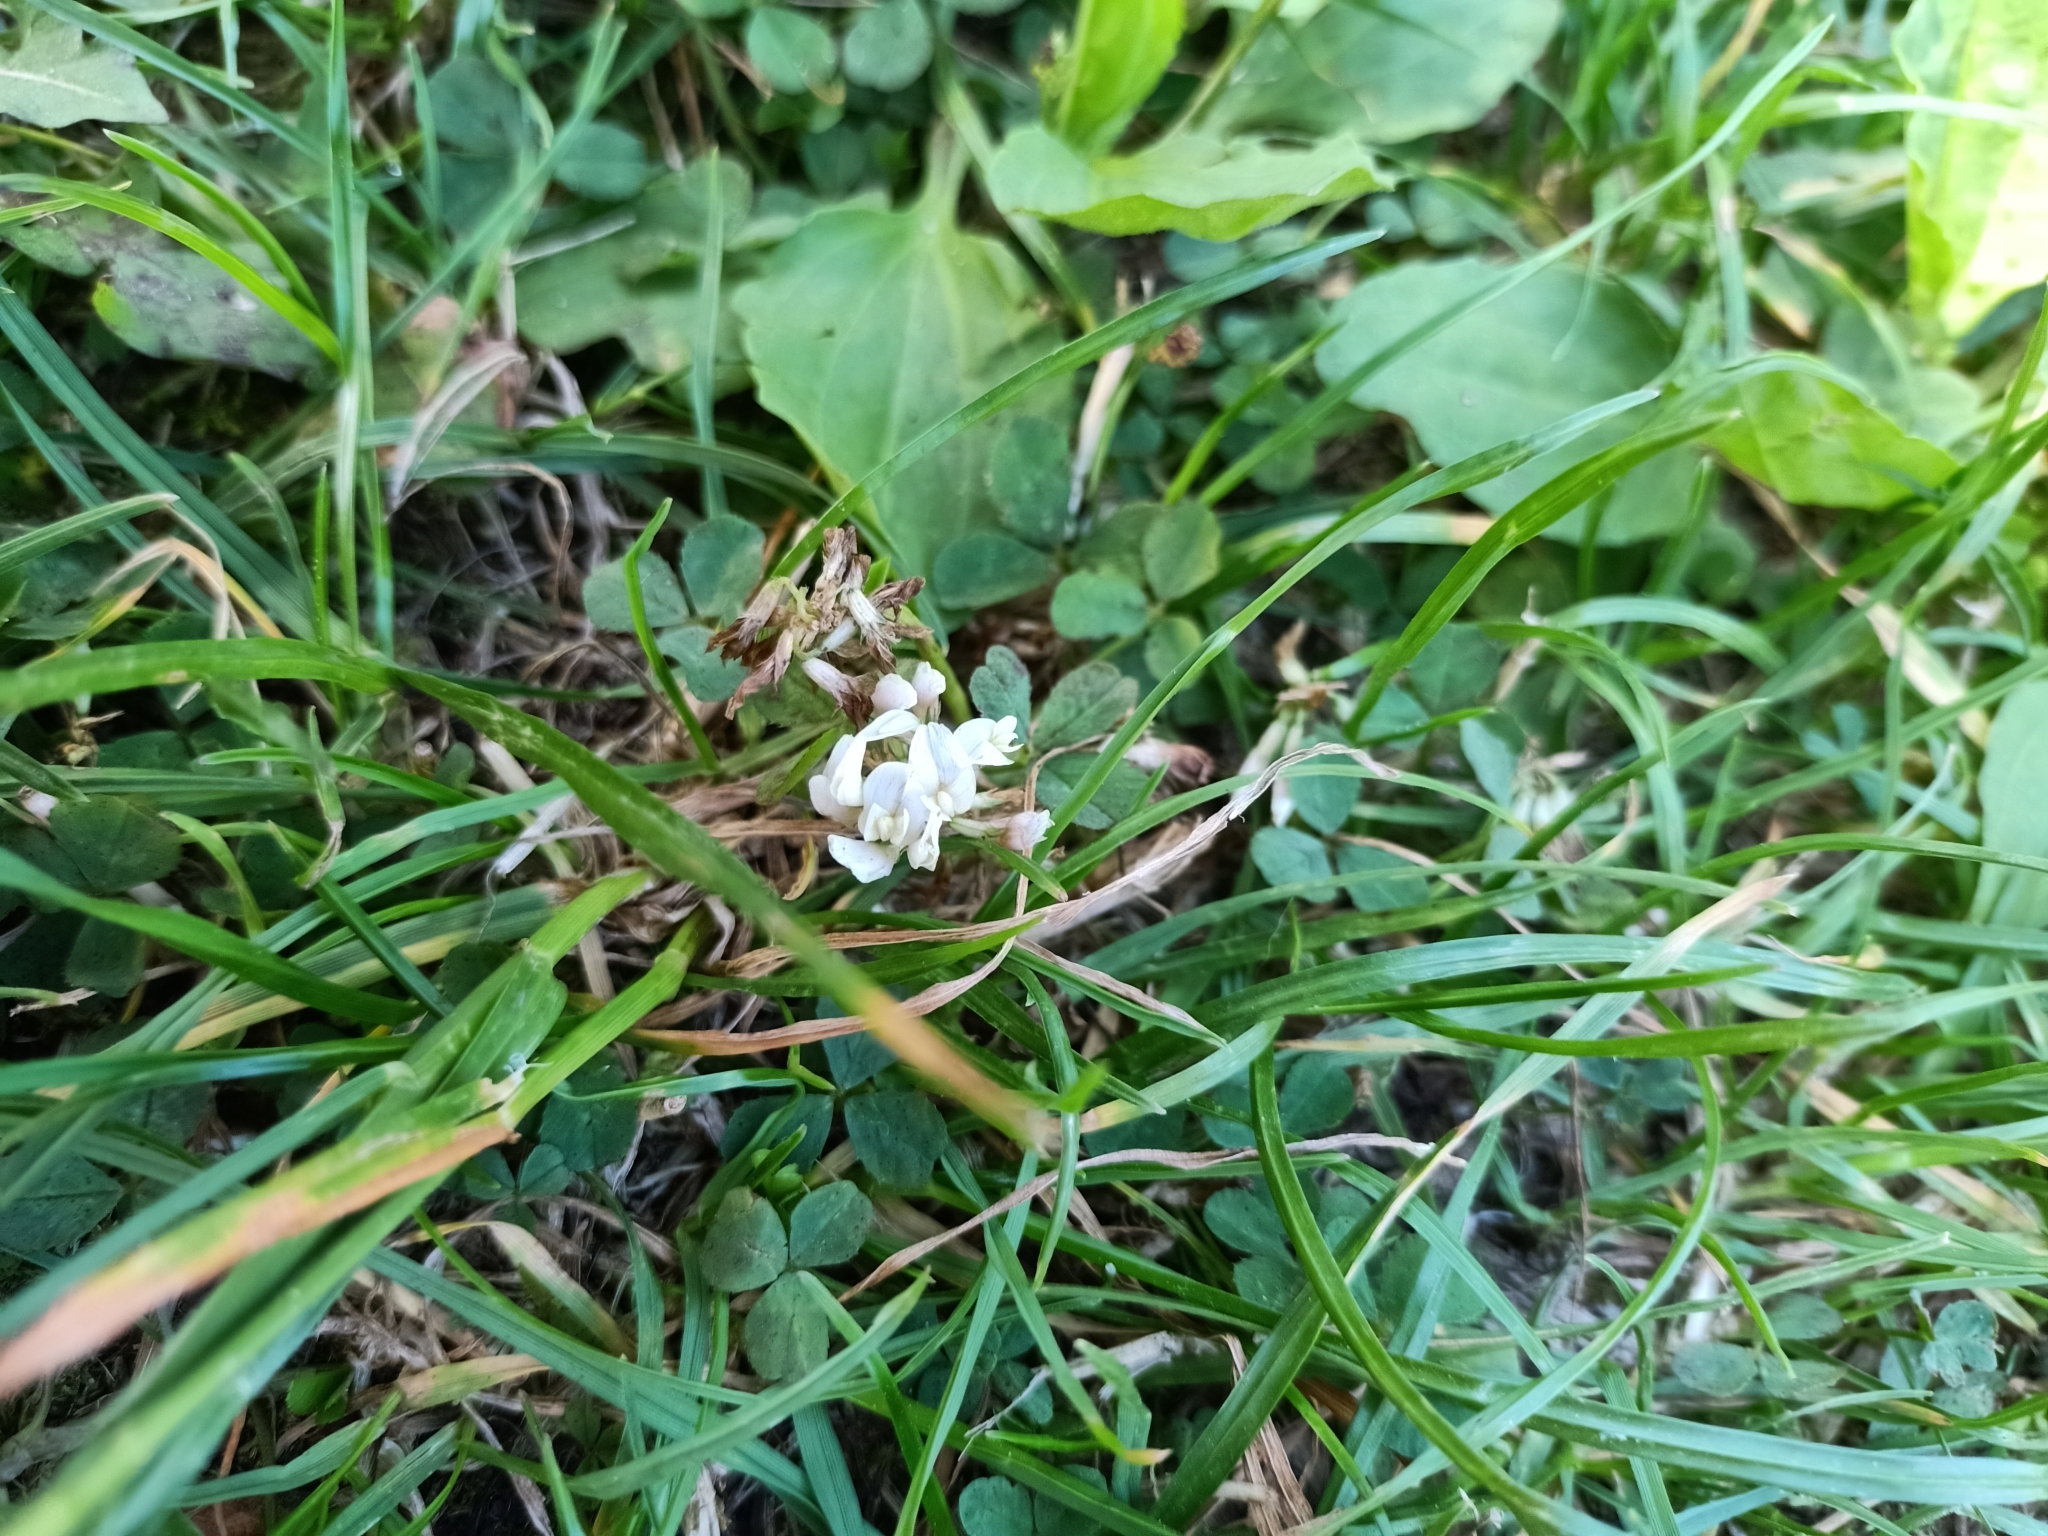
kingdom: Plantae
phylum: Tracheophyta
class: Magnoliopsida
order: Fabales
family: Fabaceae
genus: Trifolium
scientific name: Trifolium repens
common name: White clover
